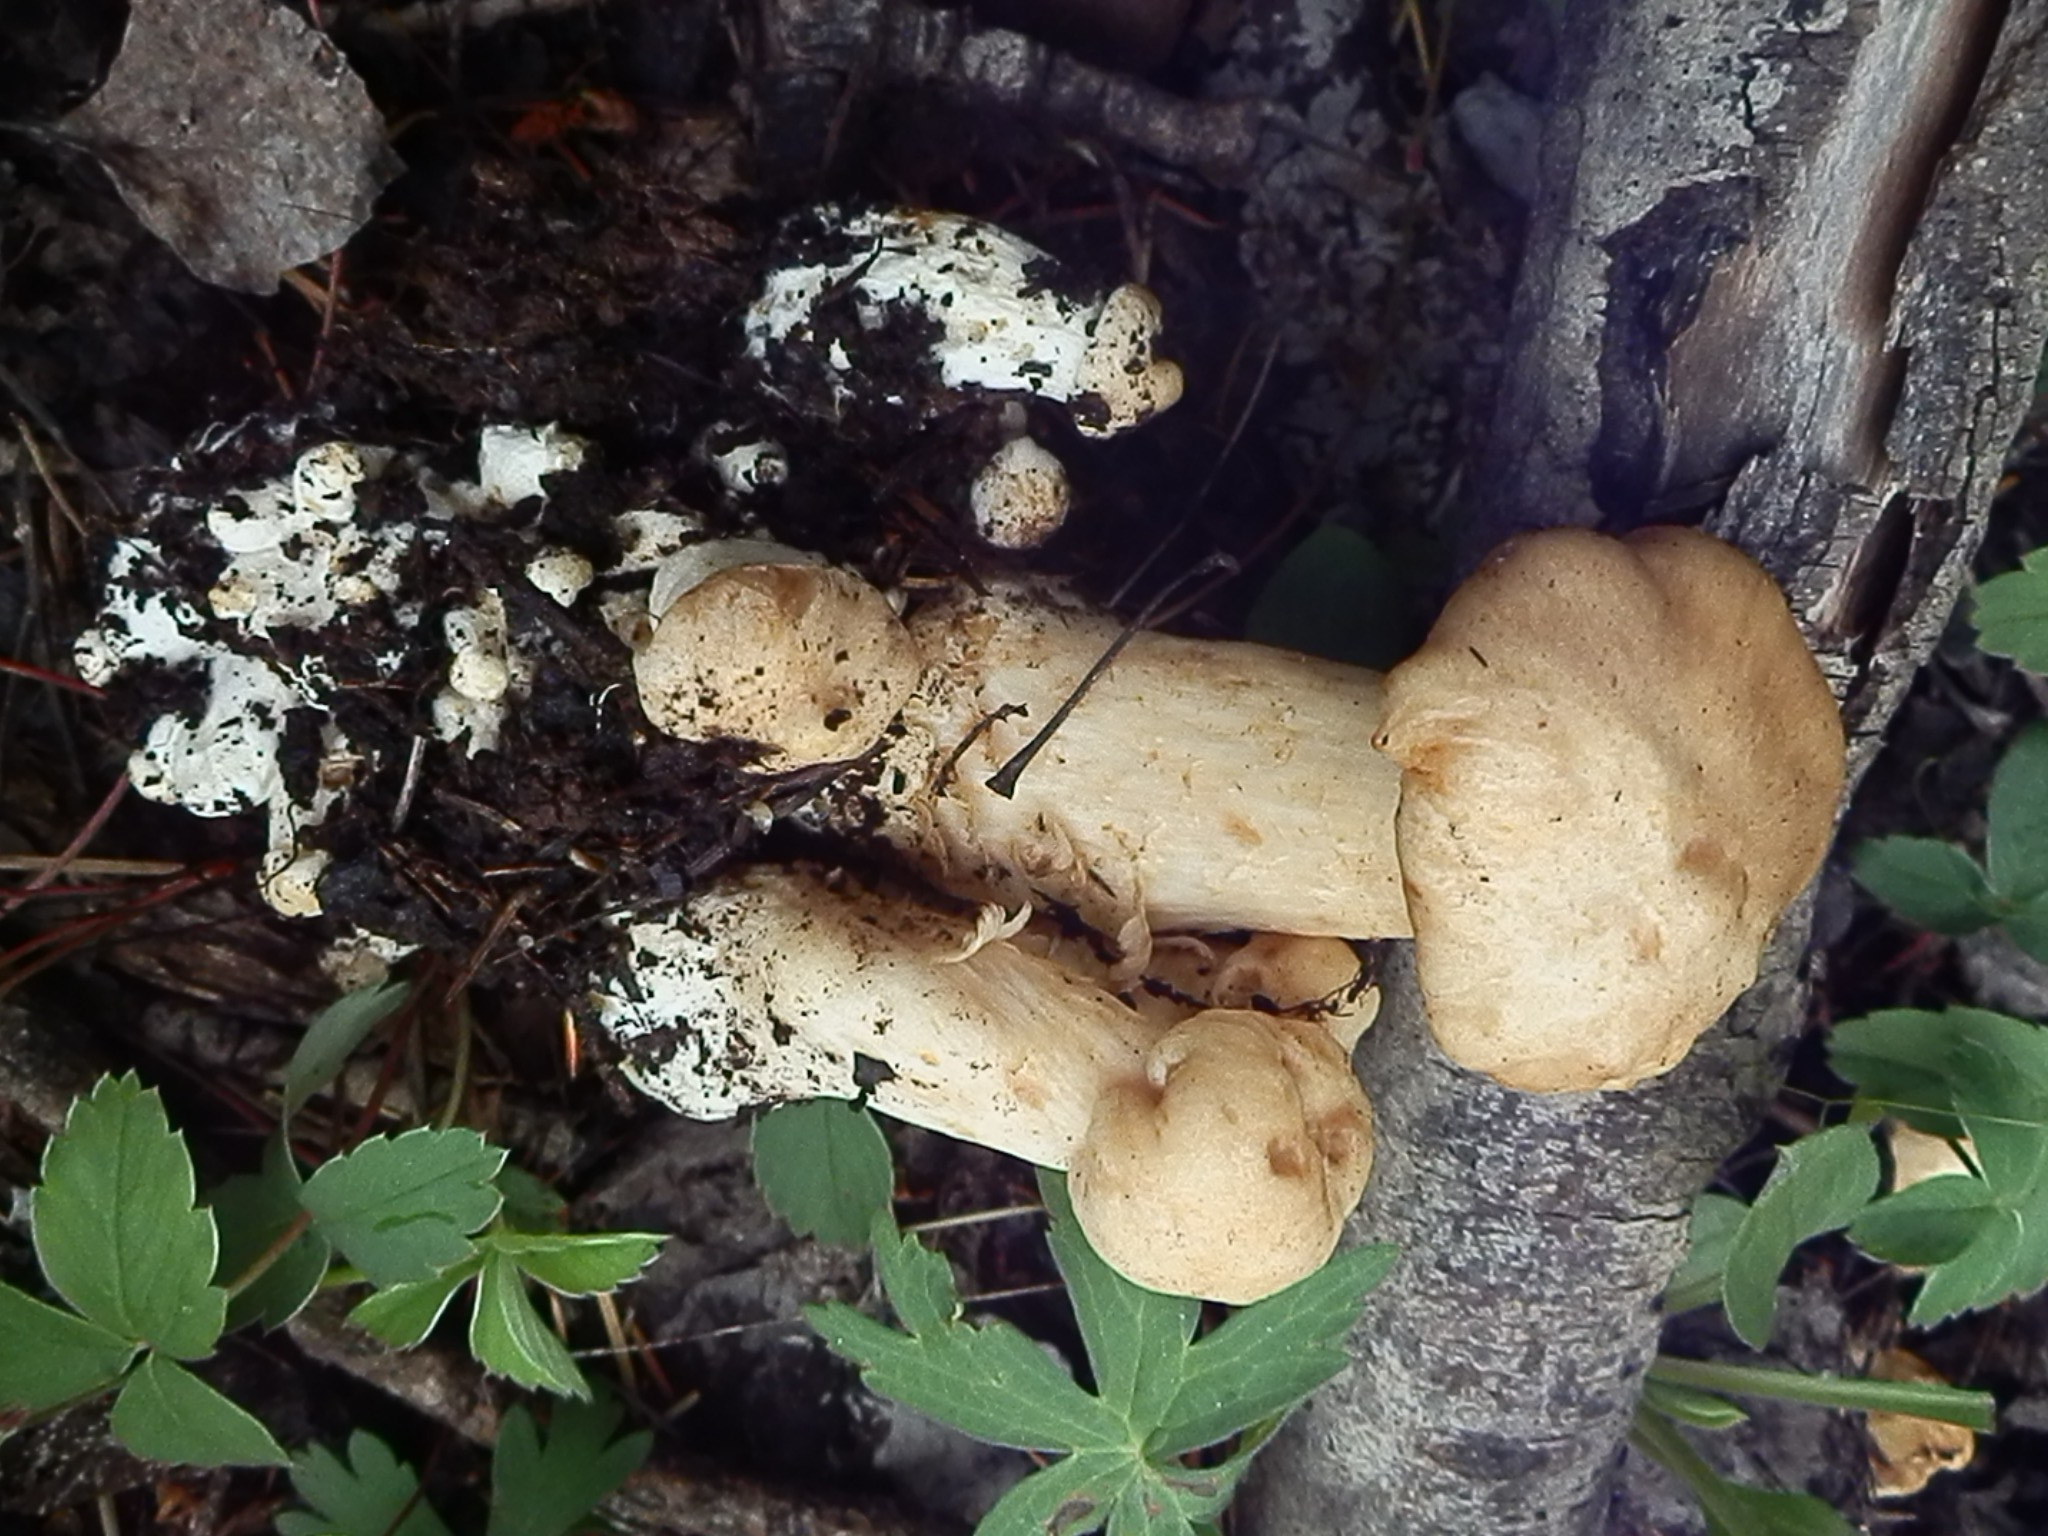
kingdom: Fungi
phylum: Basidiomycota
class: Agaricomycetes
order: Agaricales
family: Lyophyllaceae
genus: Lyophyllum
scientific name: Lyophyllum decastes
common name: Clustered domecap
